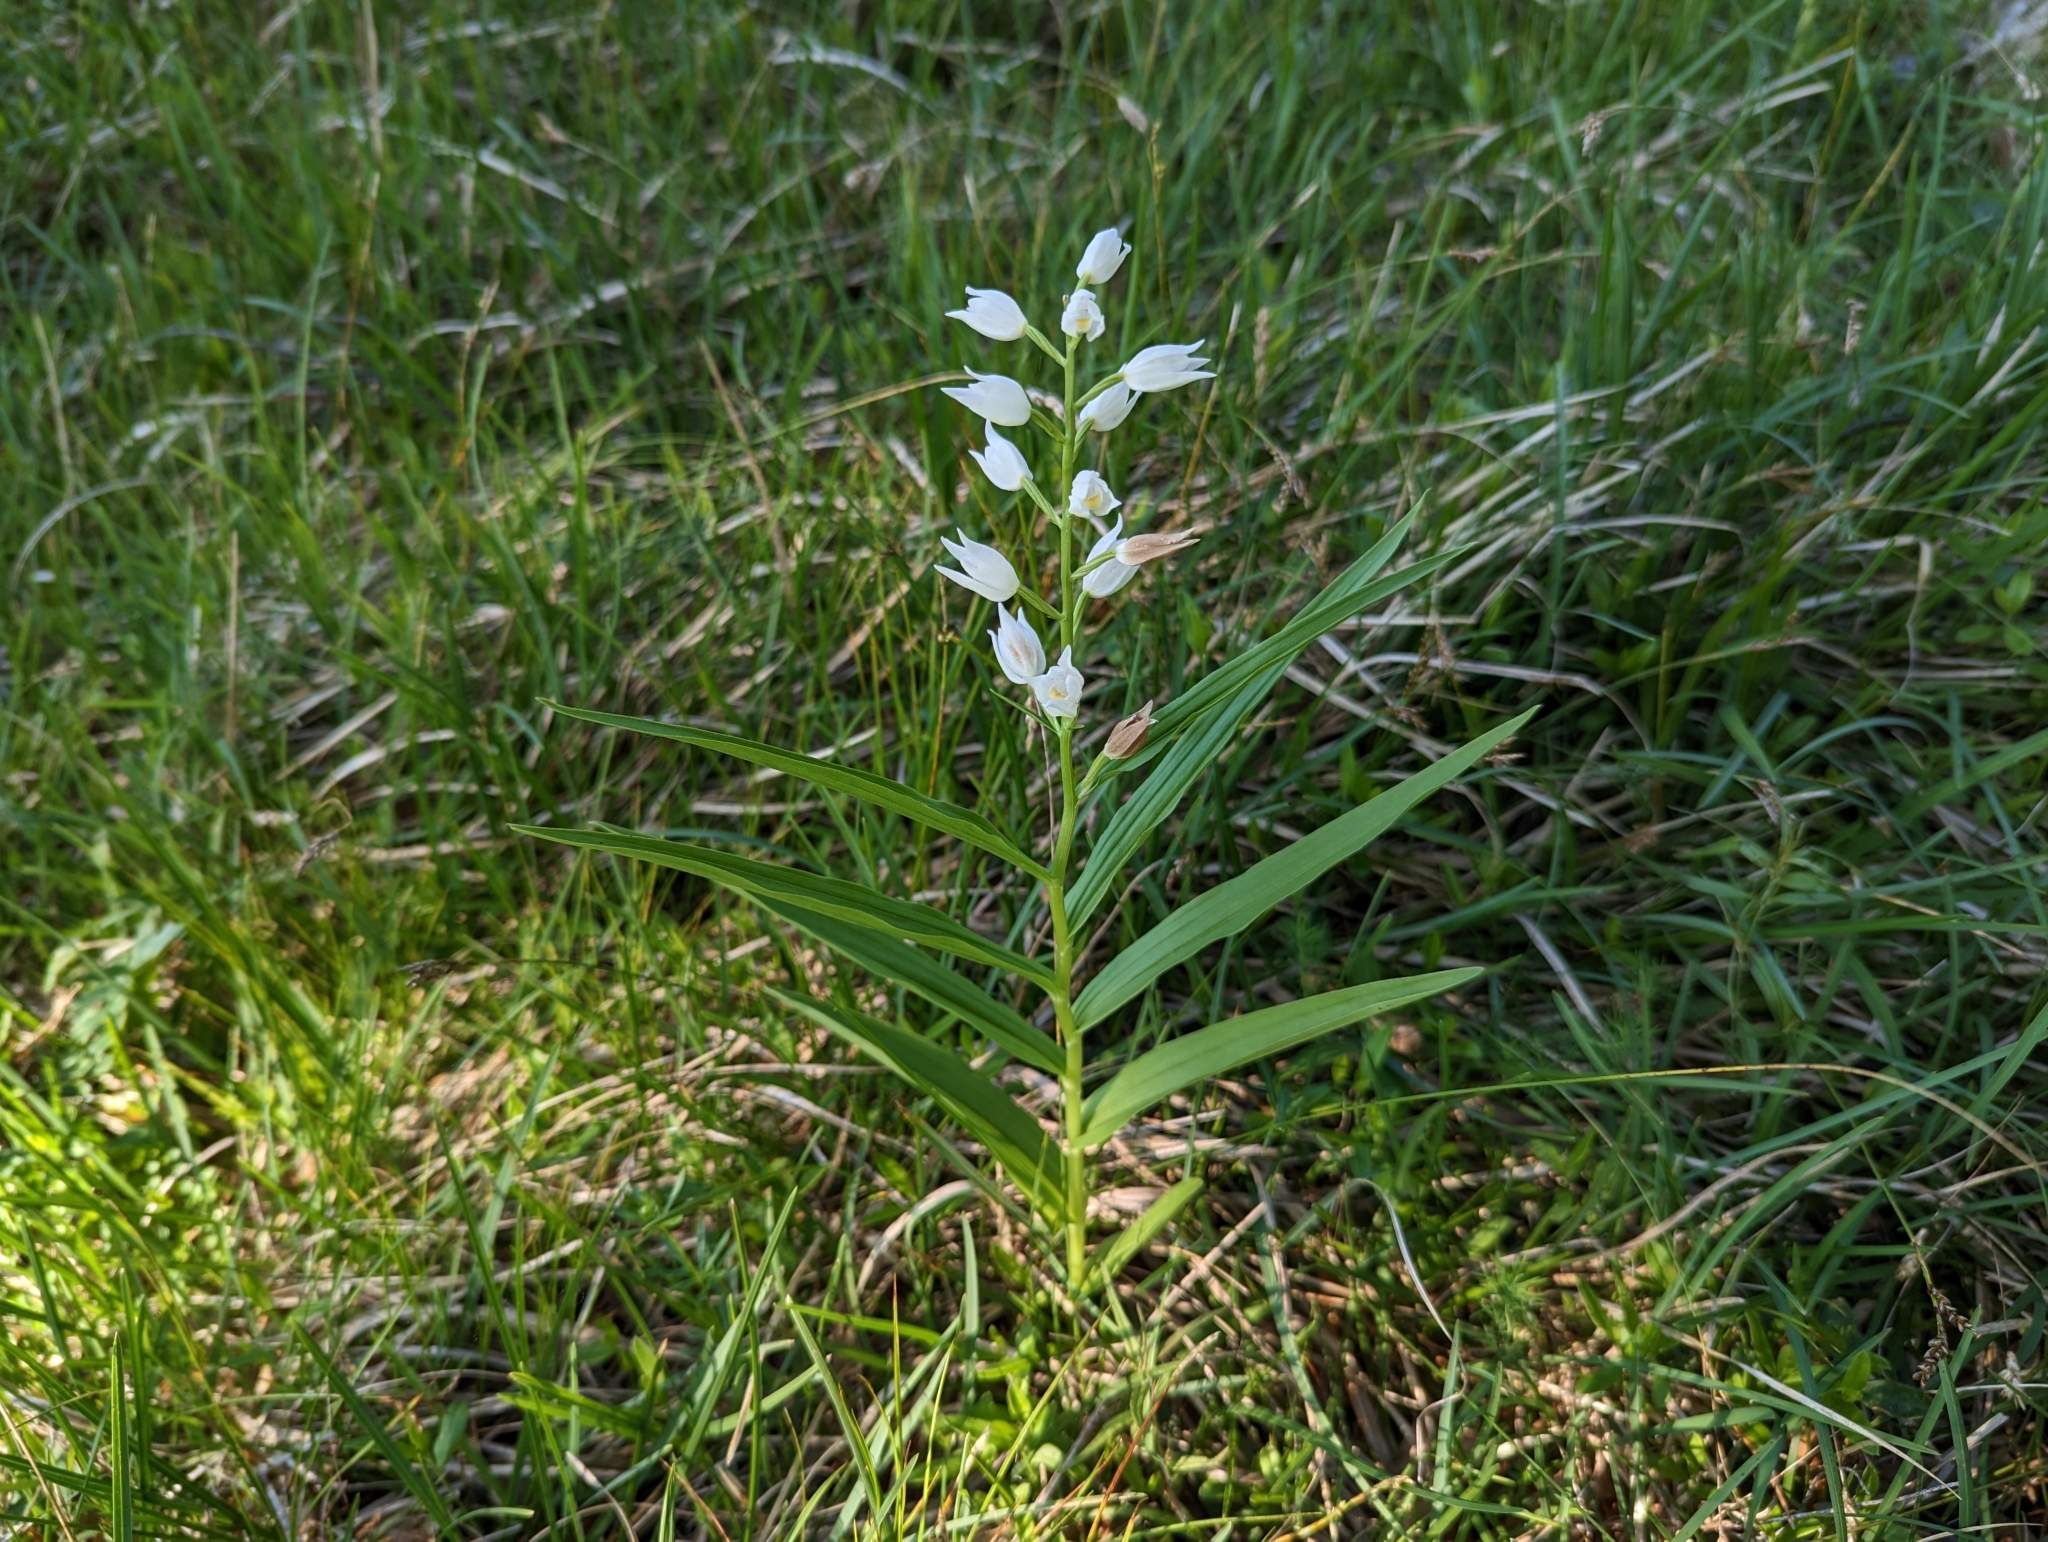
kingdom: Plantae
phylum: Tracheophyta
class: Liliopsida
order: Asparagales
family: Orchidaceae
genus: Cephalanthera
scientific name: Cephalanthera longifolia
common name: Narrow-leaved helleborine
